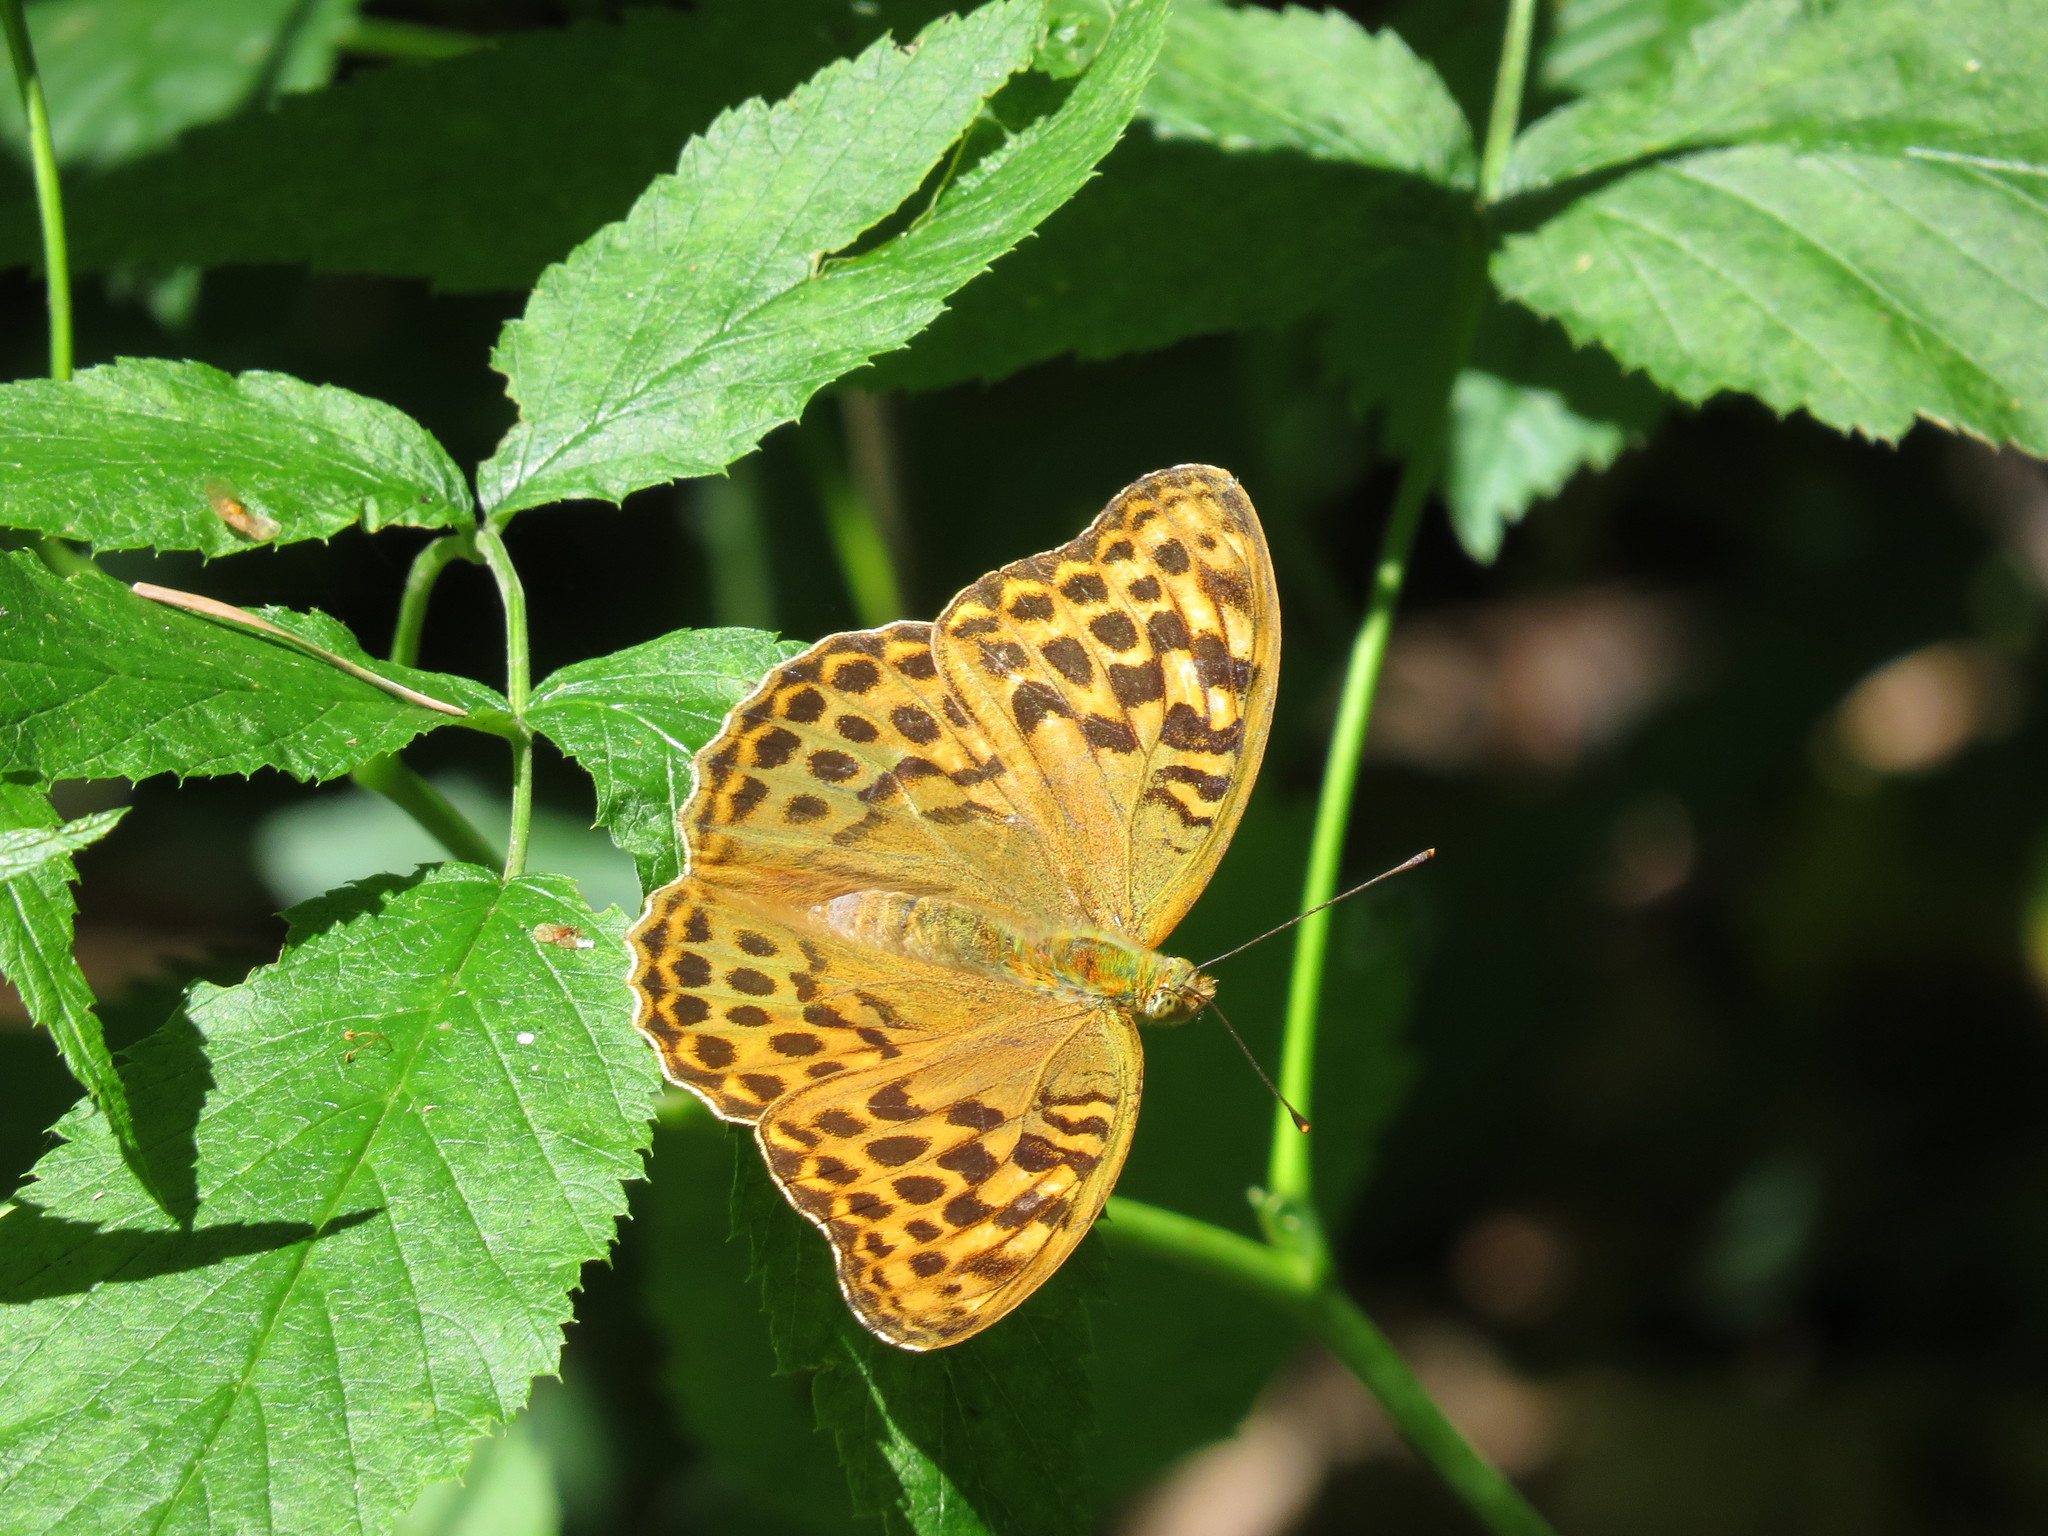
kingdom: Animalia
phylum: Arthropoda
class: Insecta
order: Lepidoptera
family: Nymphalidae
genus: Argynnis
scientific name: Argynnis paphia
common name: Silver-washed fritillary
